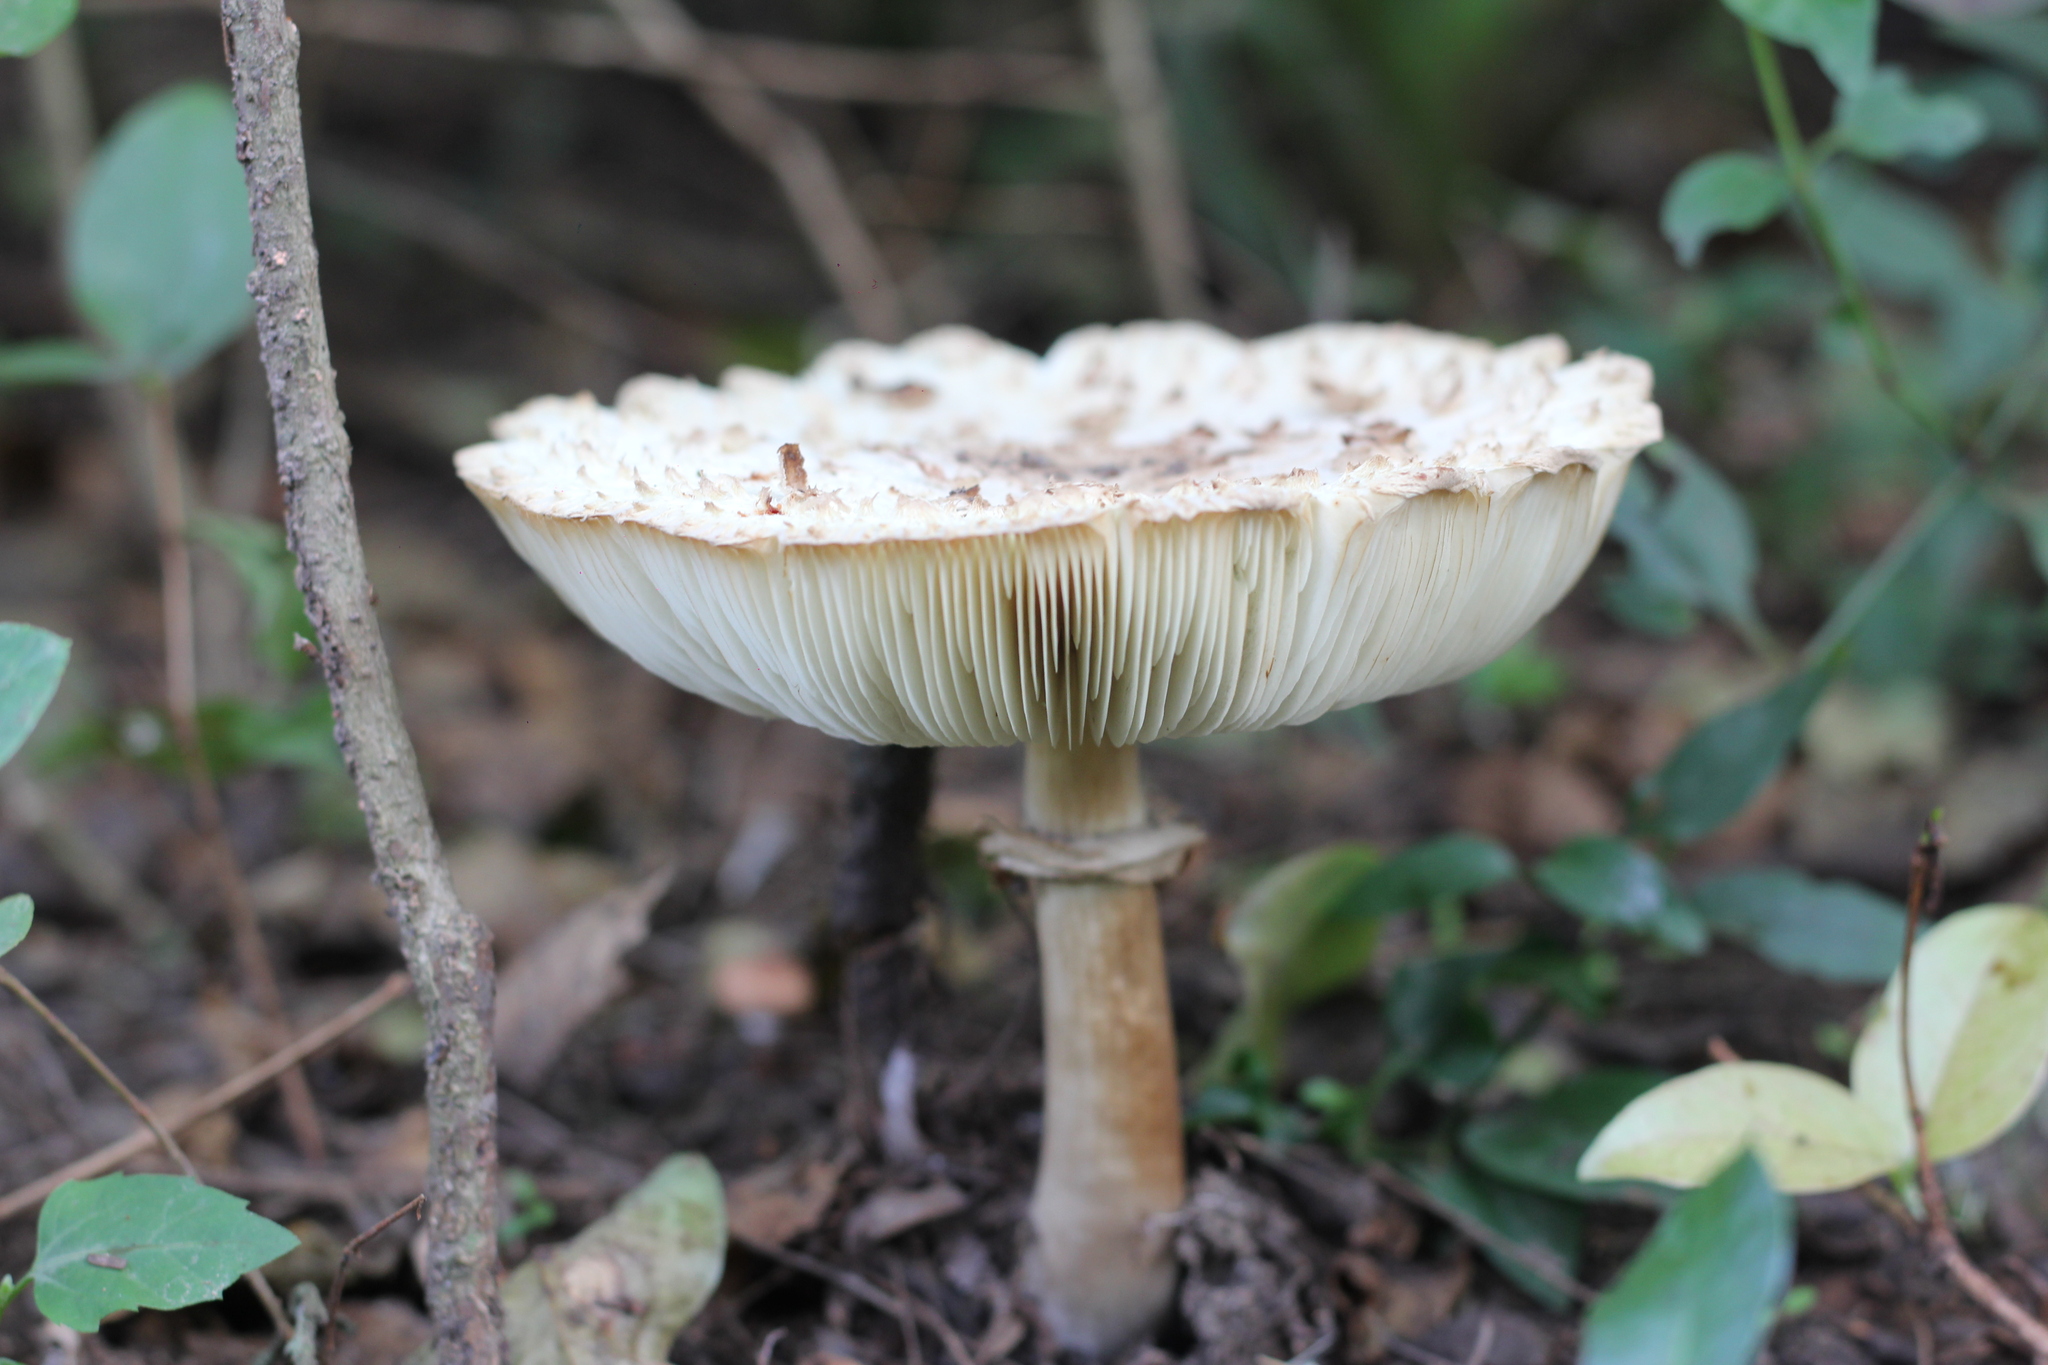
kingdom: Fungi
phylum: Basidiomycota
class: Agaricomycetes
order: Agaricales
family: Agaricaceae
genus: Chlorophyllum
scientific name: Chlorophyllum molybdites
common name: False parasol
